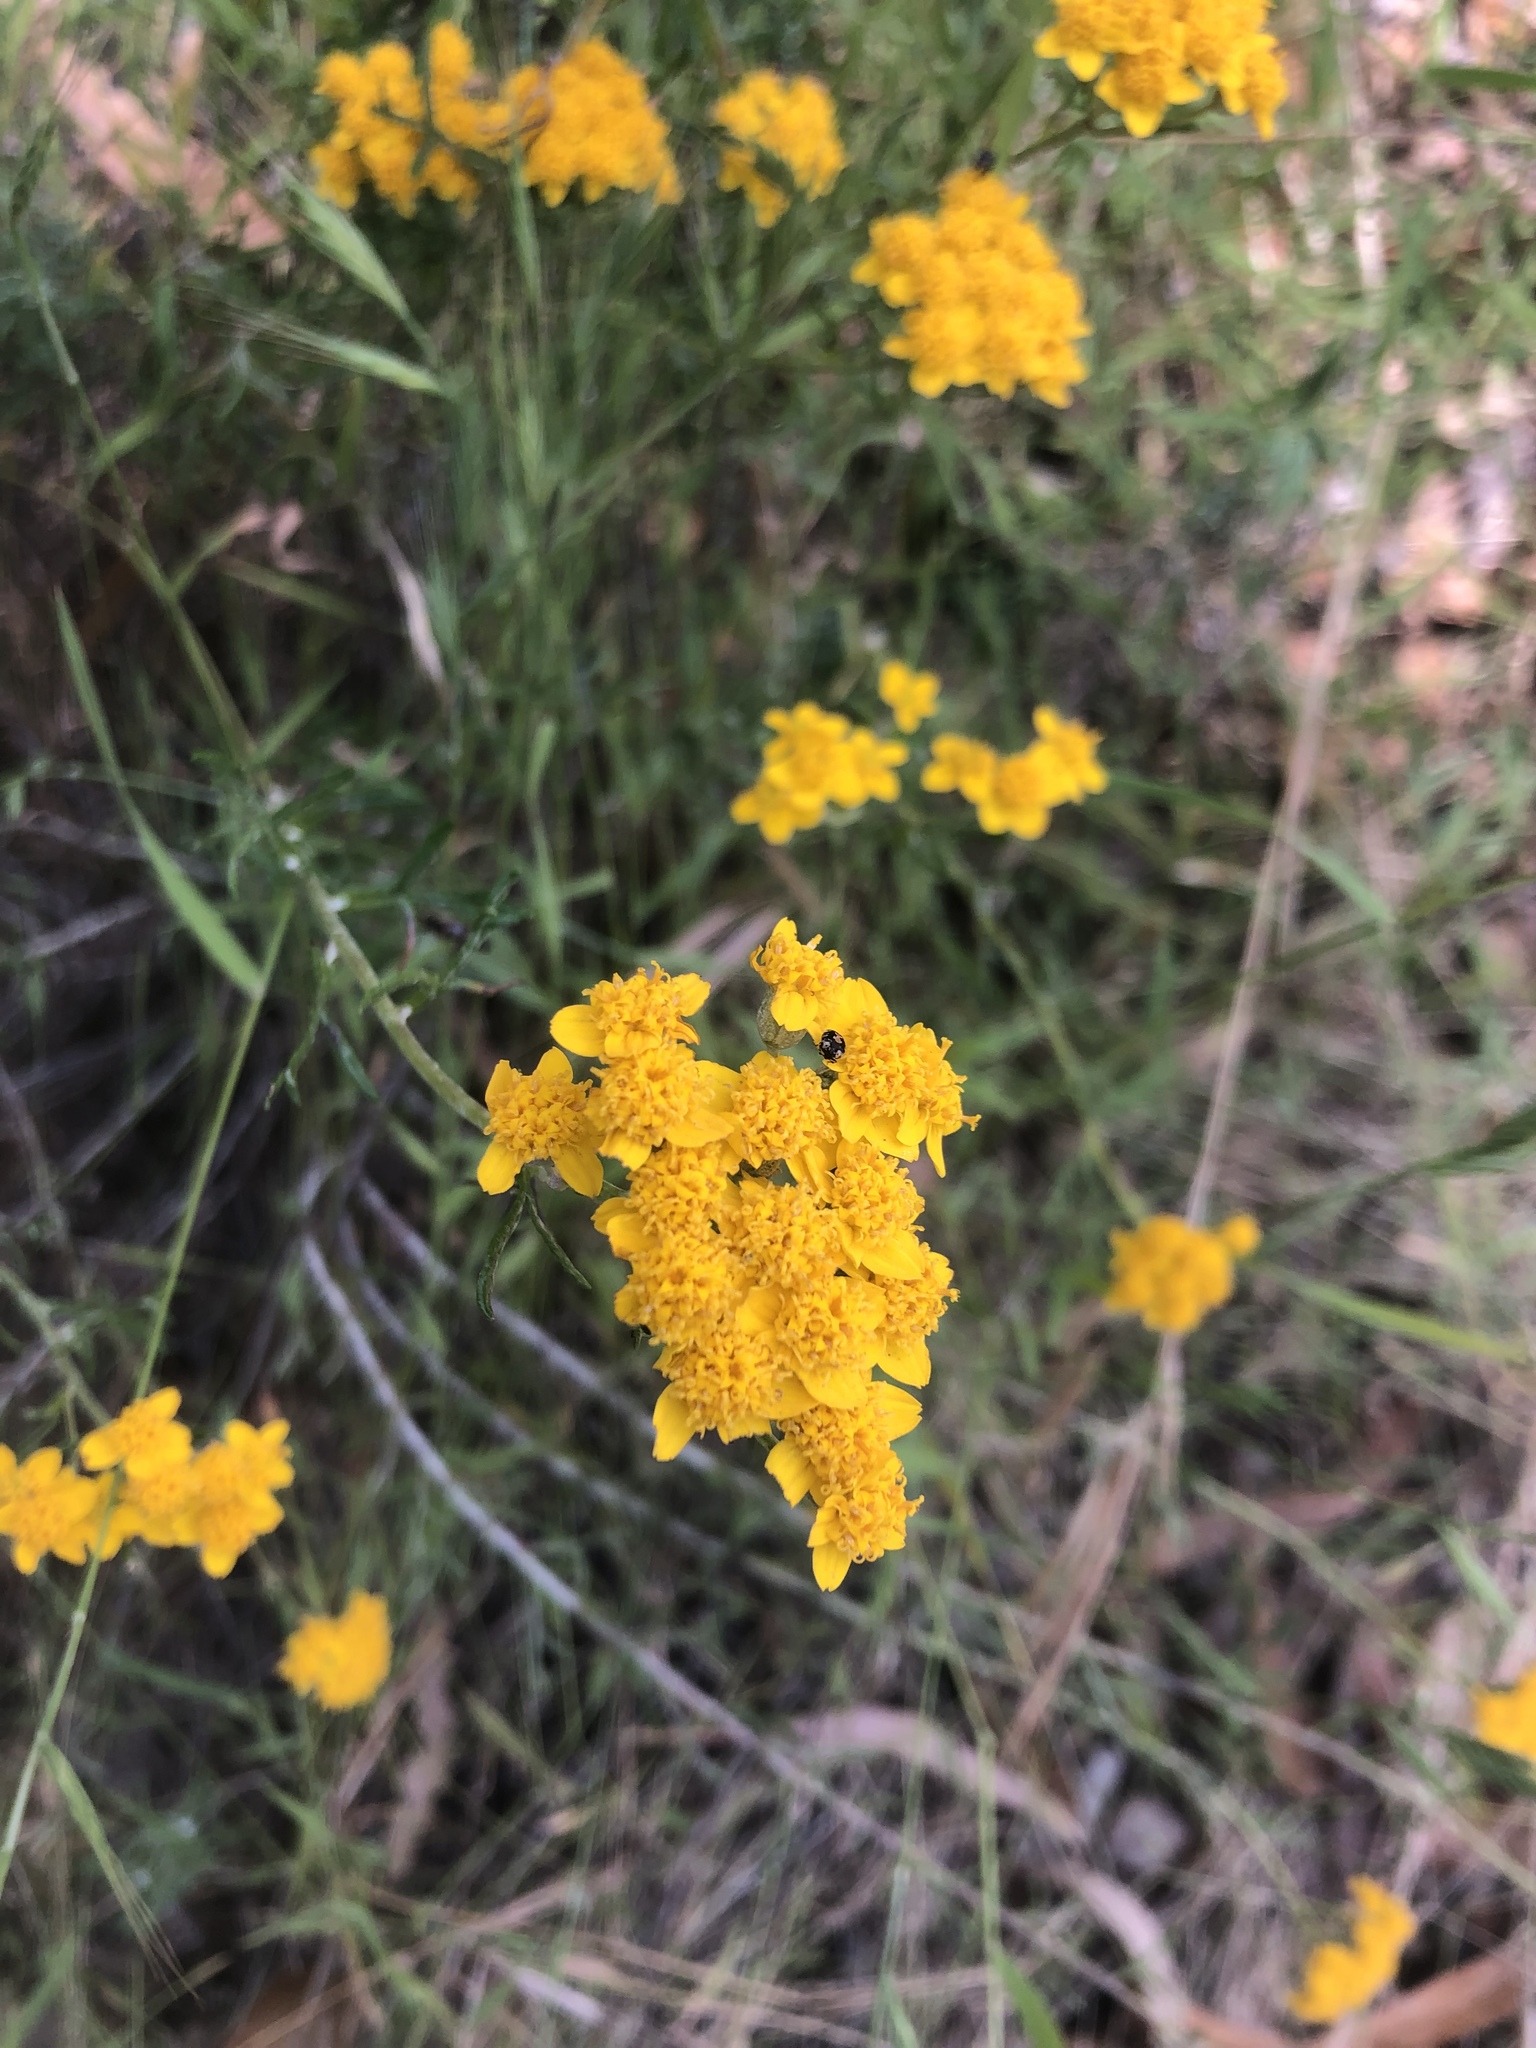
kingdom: Plantae
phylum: Tracheophyta
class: Magnoliopsida
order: Asterales
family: Asteraceae
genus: Eriophyllum
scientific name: Eriophyllum confertiflorum
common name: Golden-yarrow
